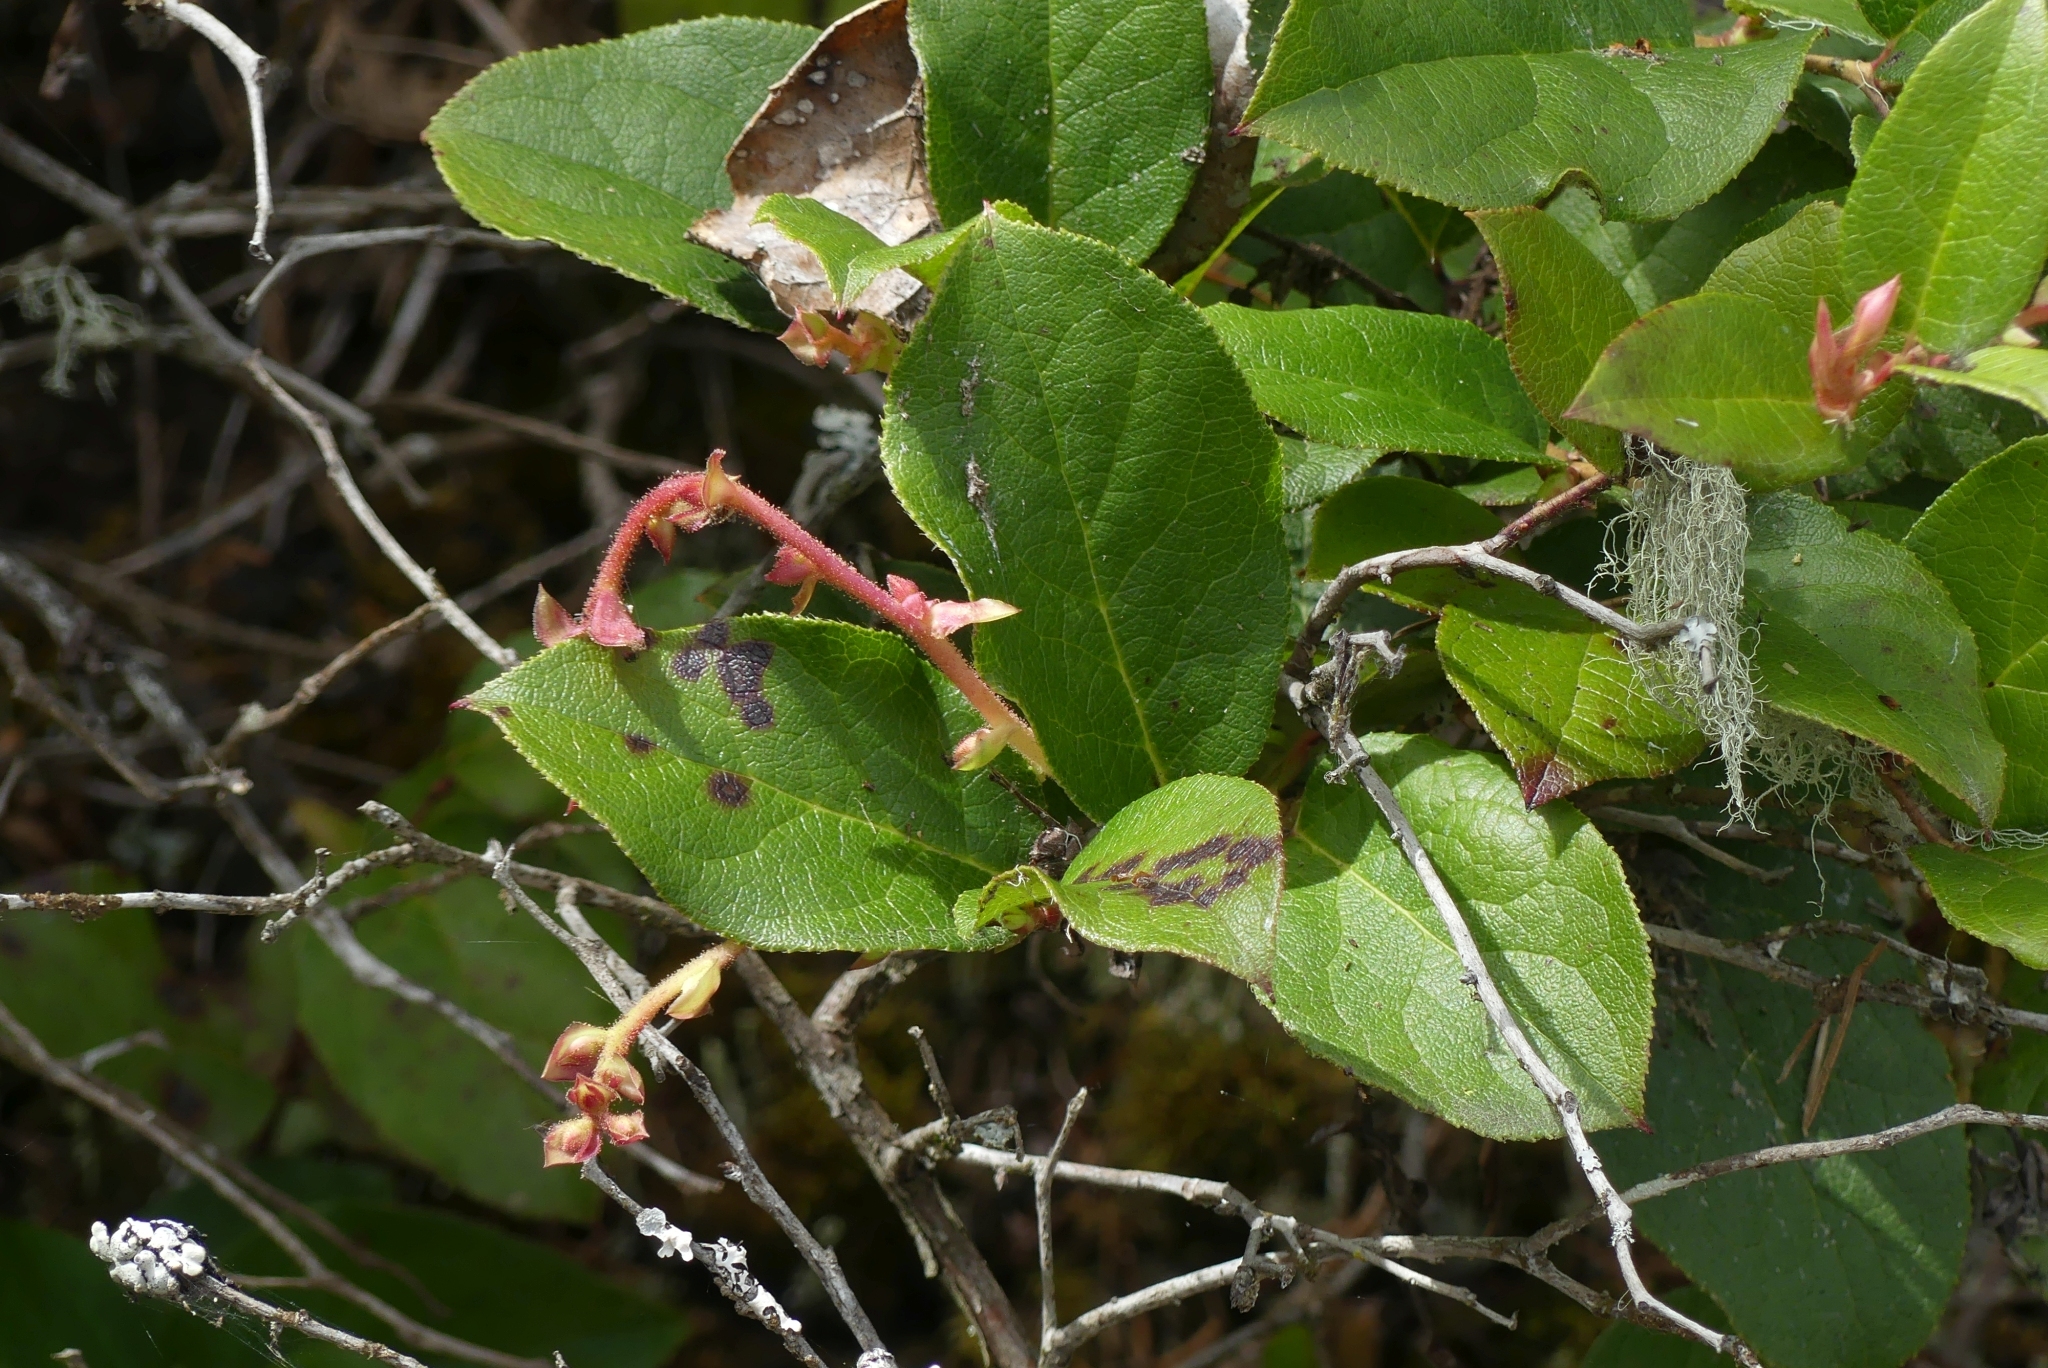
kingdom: Plantae
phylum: Tracheophyta
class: Magnoliopsida
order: Ericales
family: Ericaceae
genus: Gaultheria
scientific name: Gaultheria shallon
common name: Shallon
